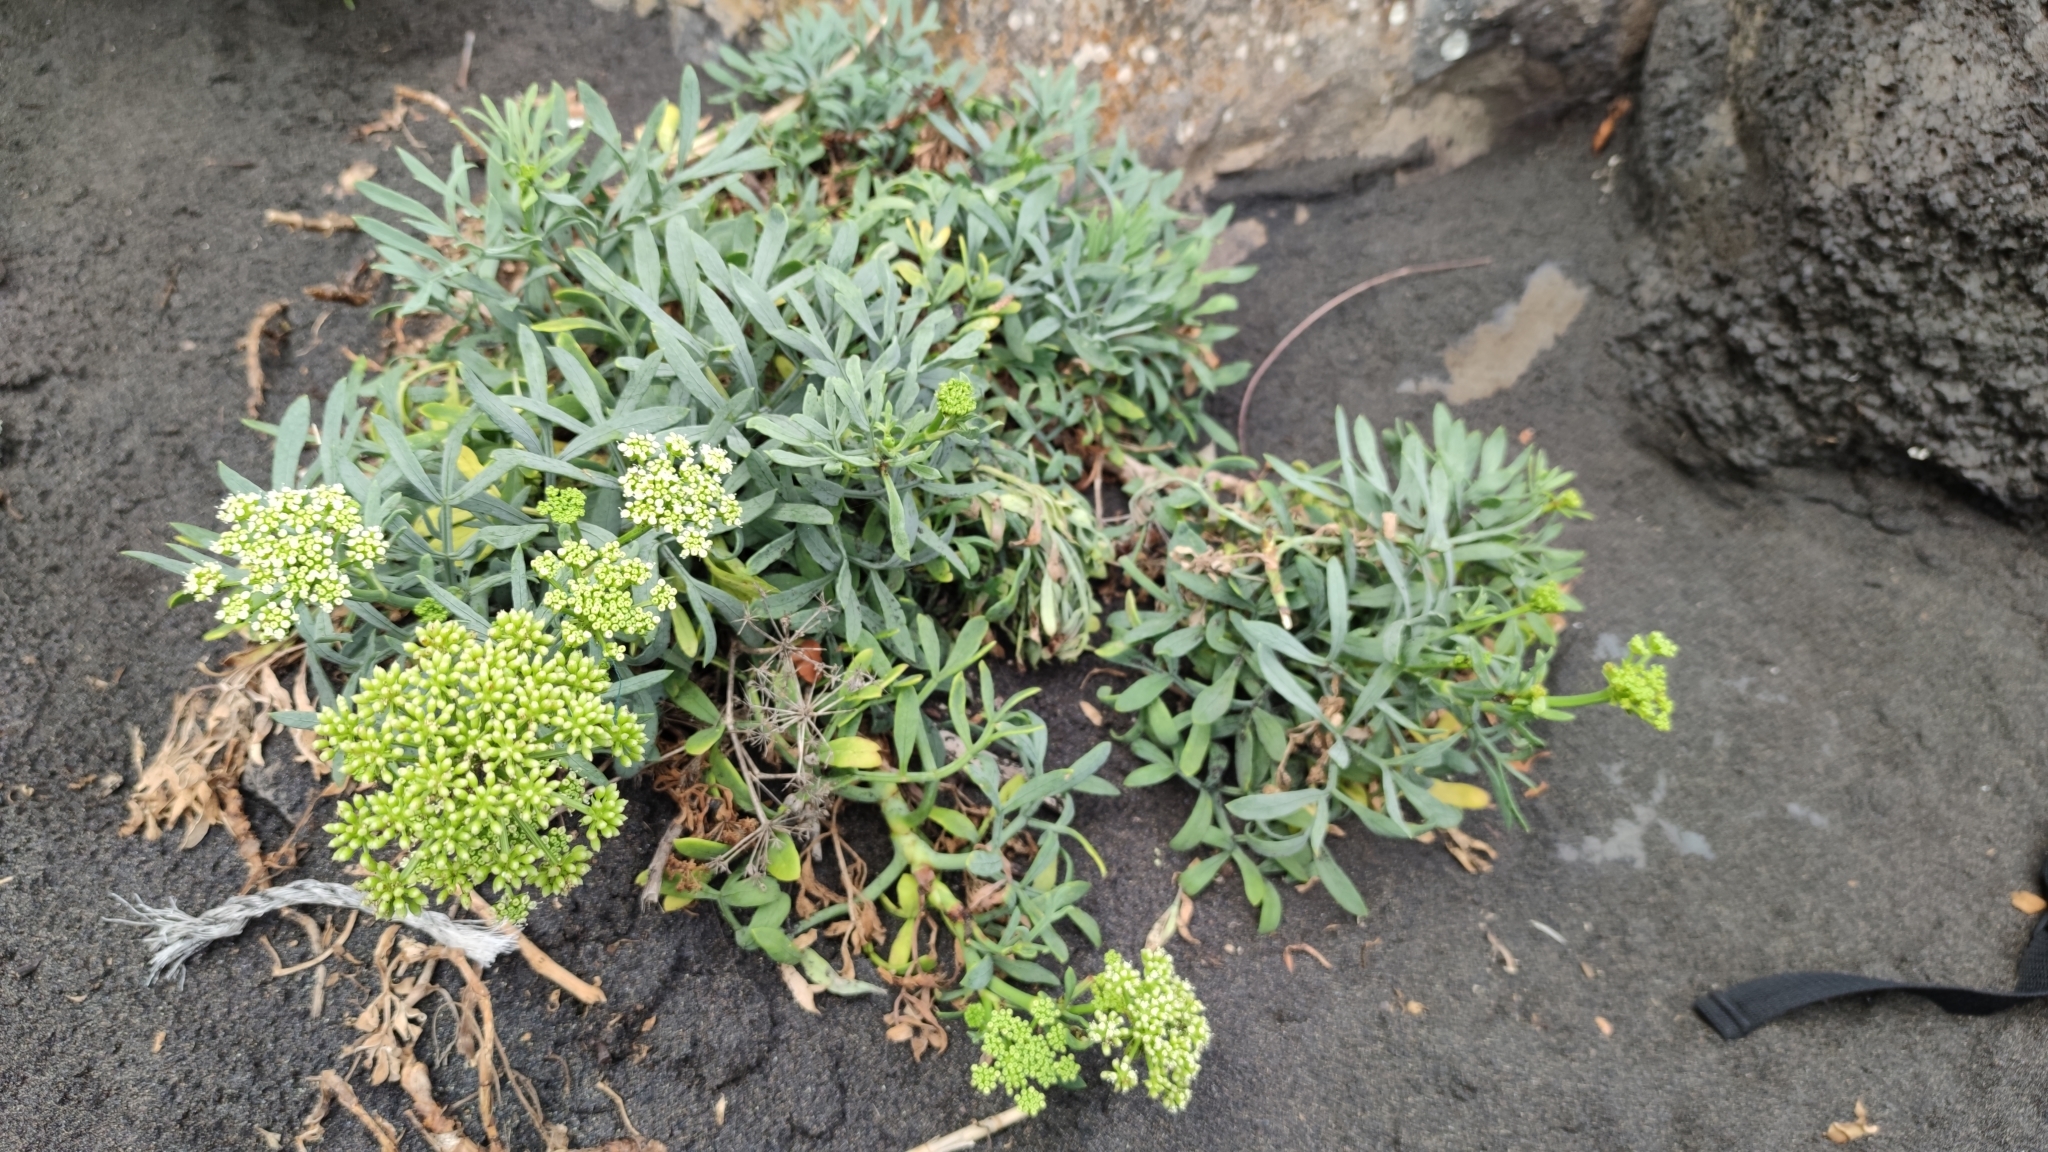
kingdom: Plantae
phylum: Tracheophyta
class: Magnoliopsida
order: Apiales
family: Apiaceae
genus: Crithmum
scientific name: Crithmum maritimum
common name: Rock samphire
